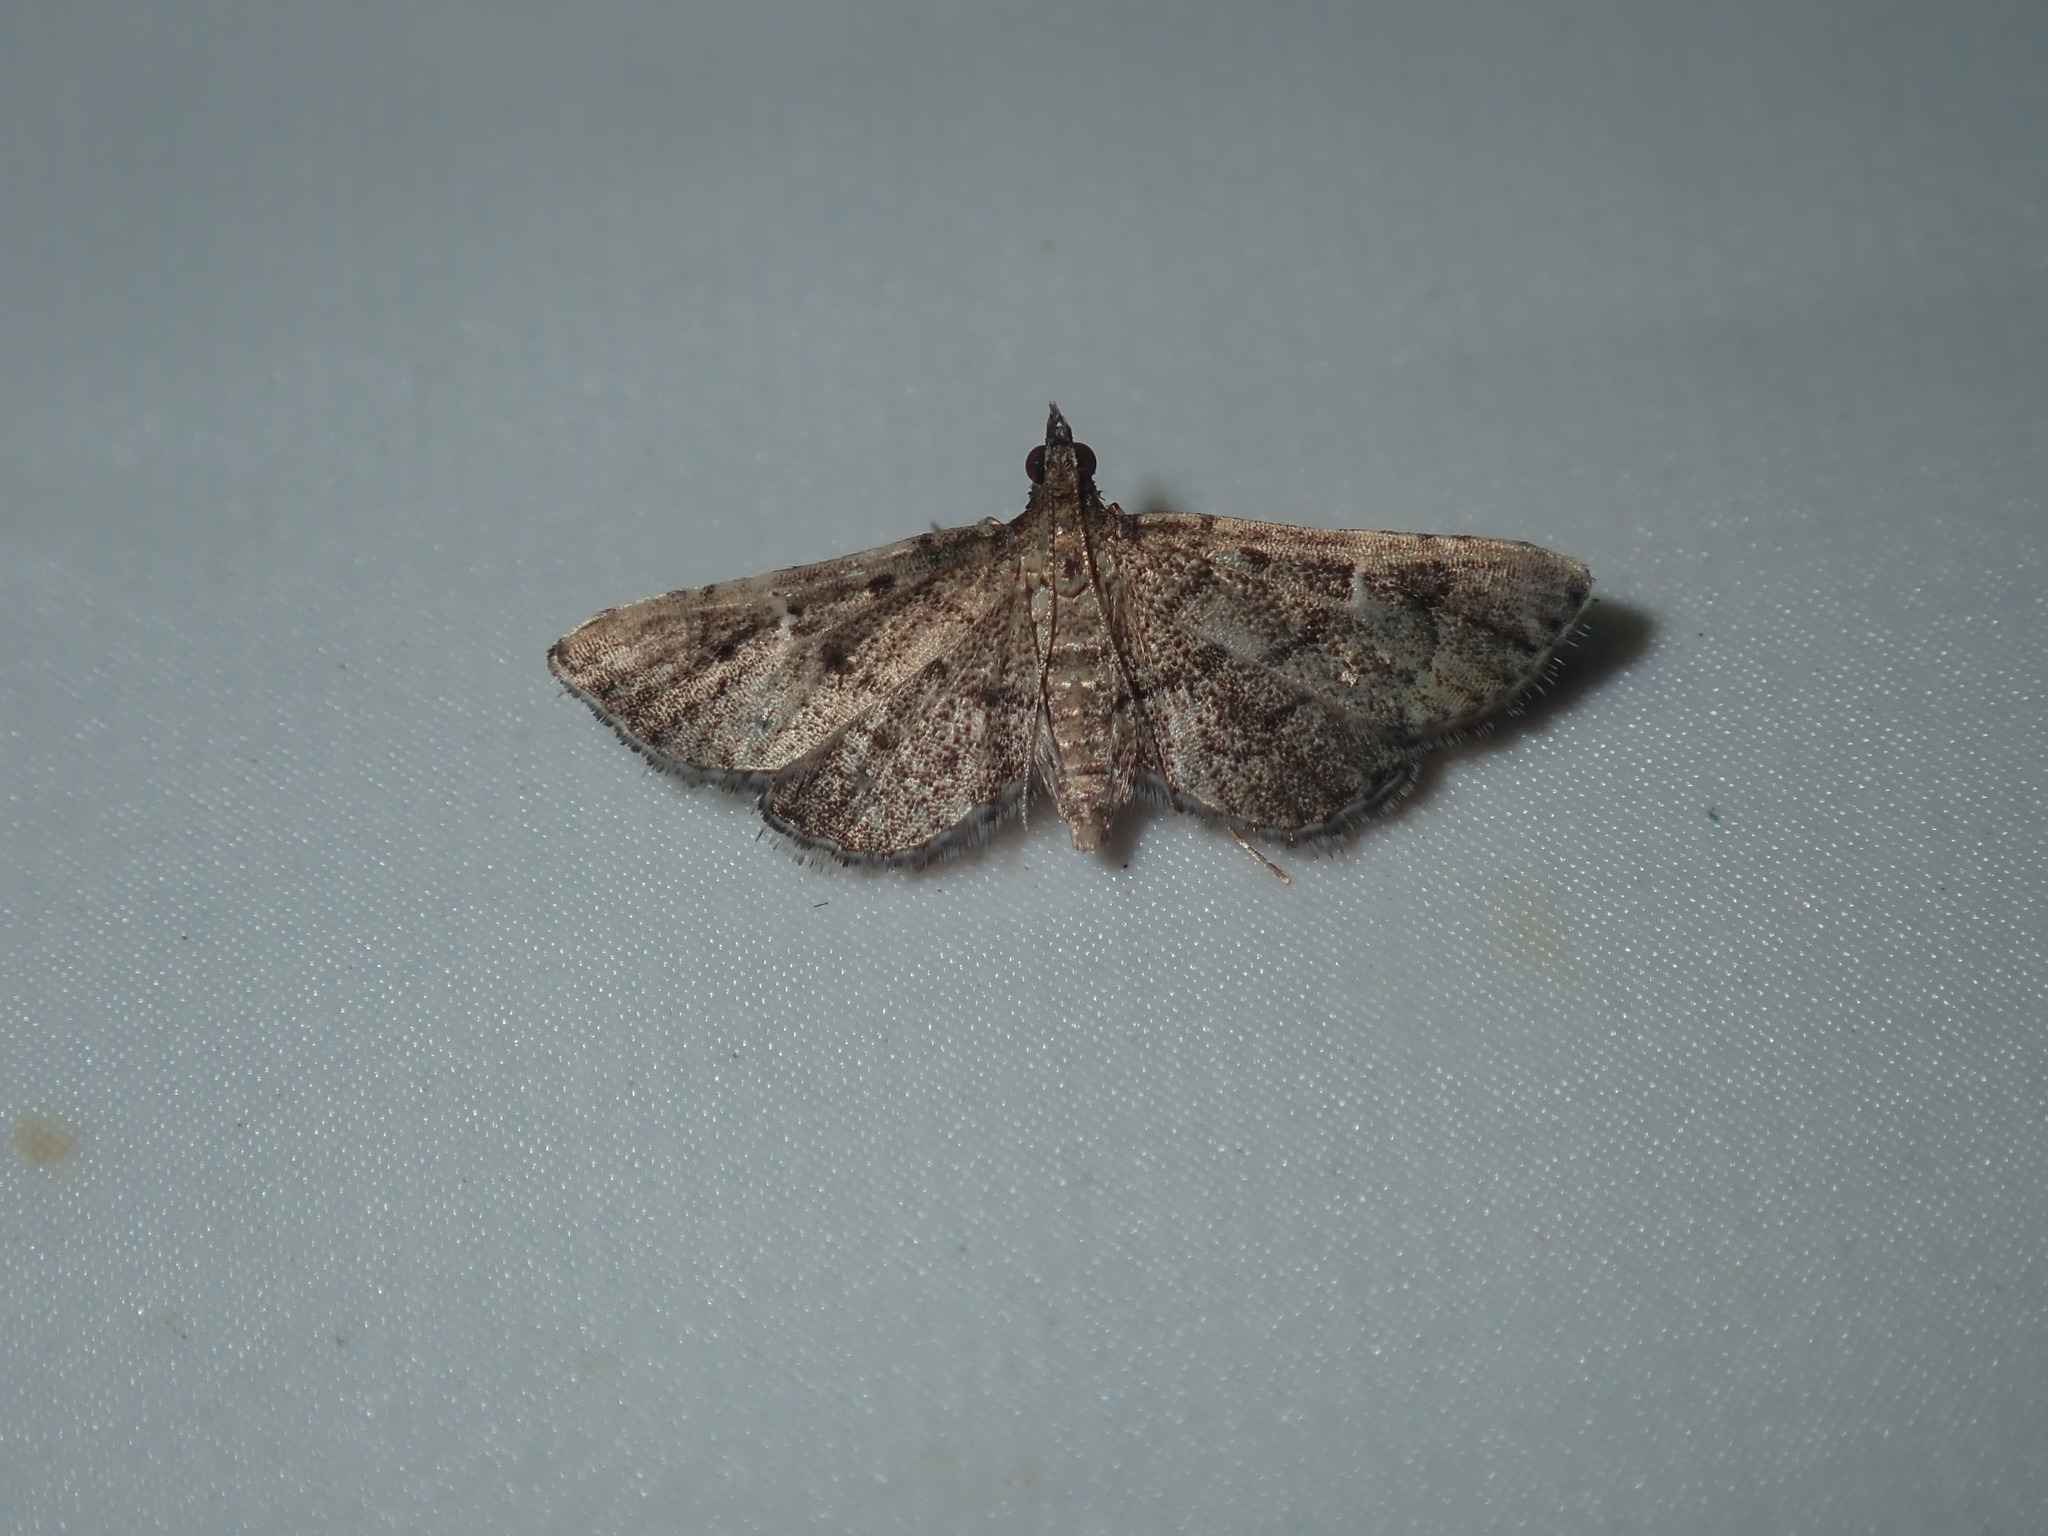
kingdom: Animalia
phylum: Arthropoda
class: Insecta
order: Lepidoptera
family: Crambidae
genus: Metasia
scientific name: Metasia capnochroa
